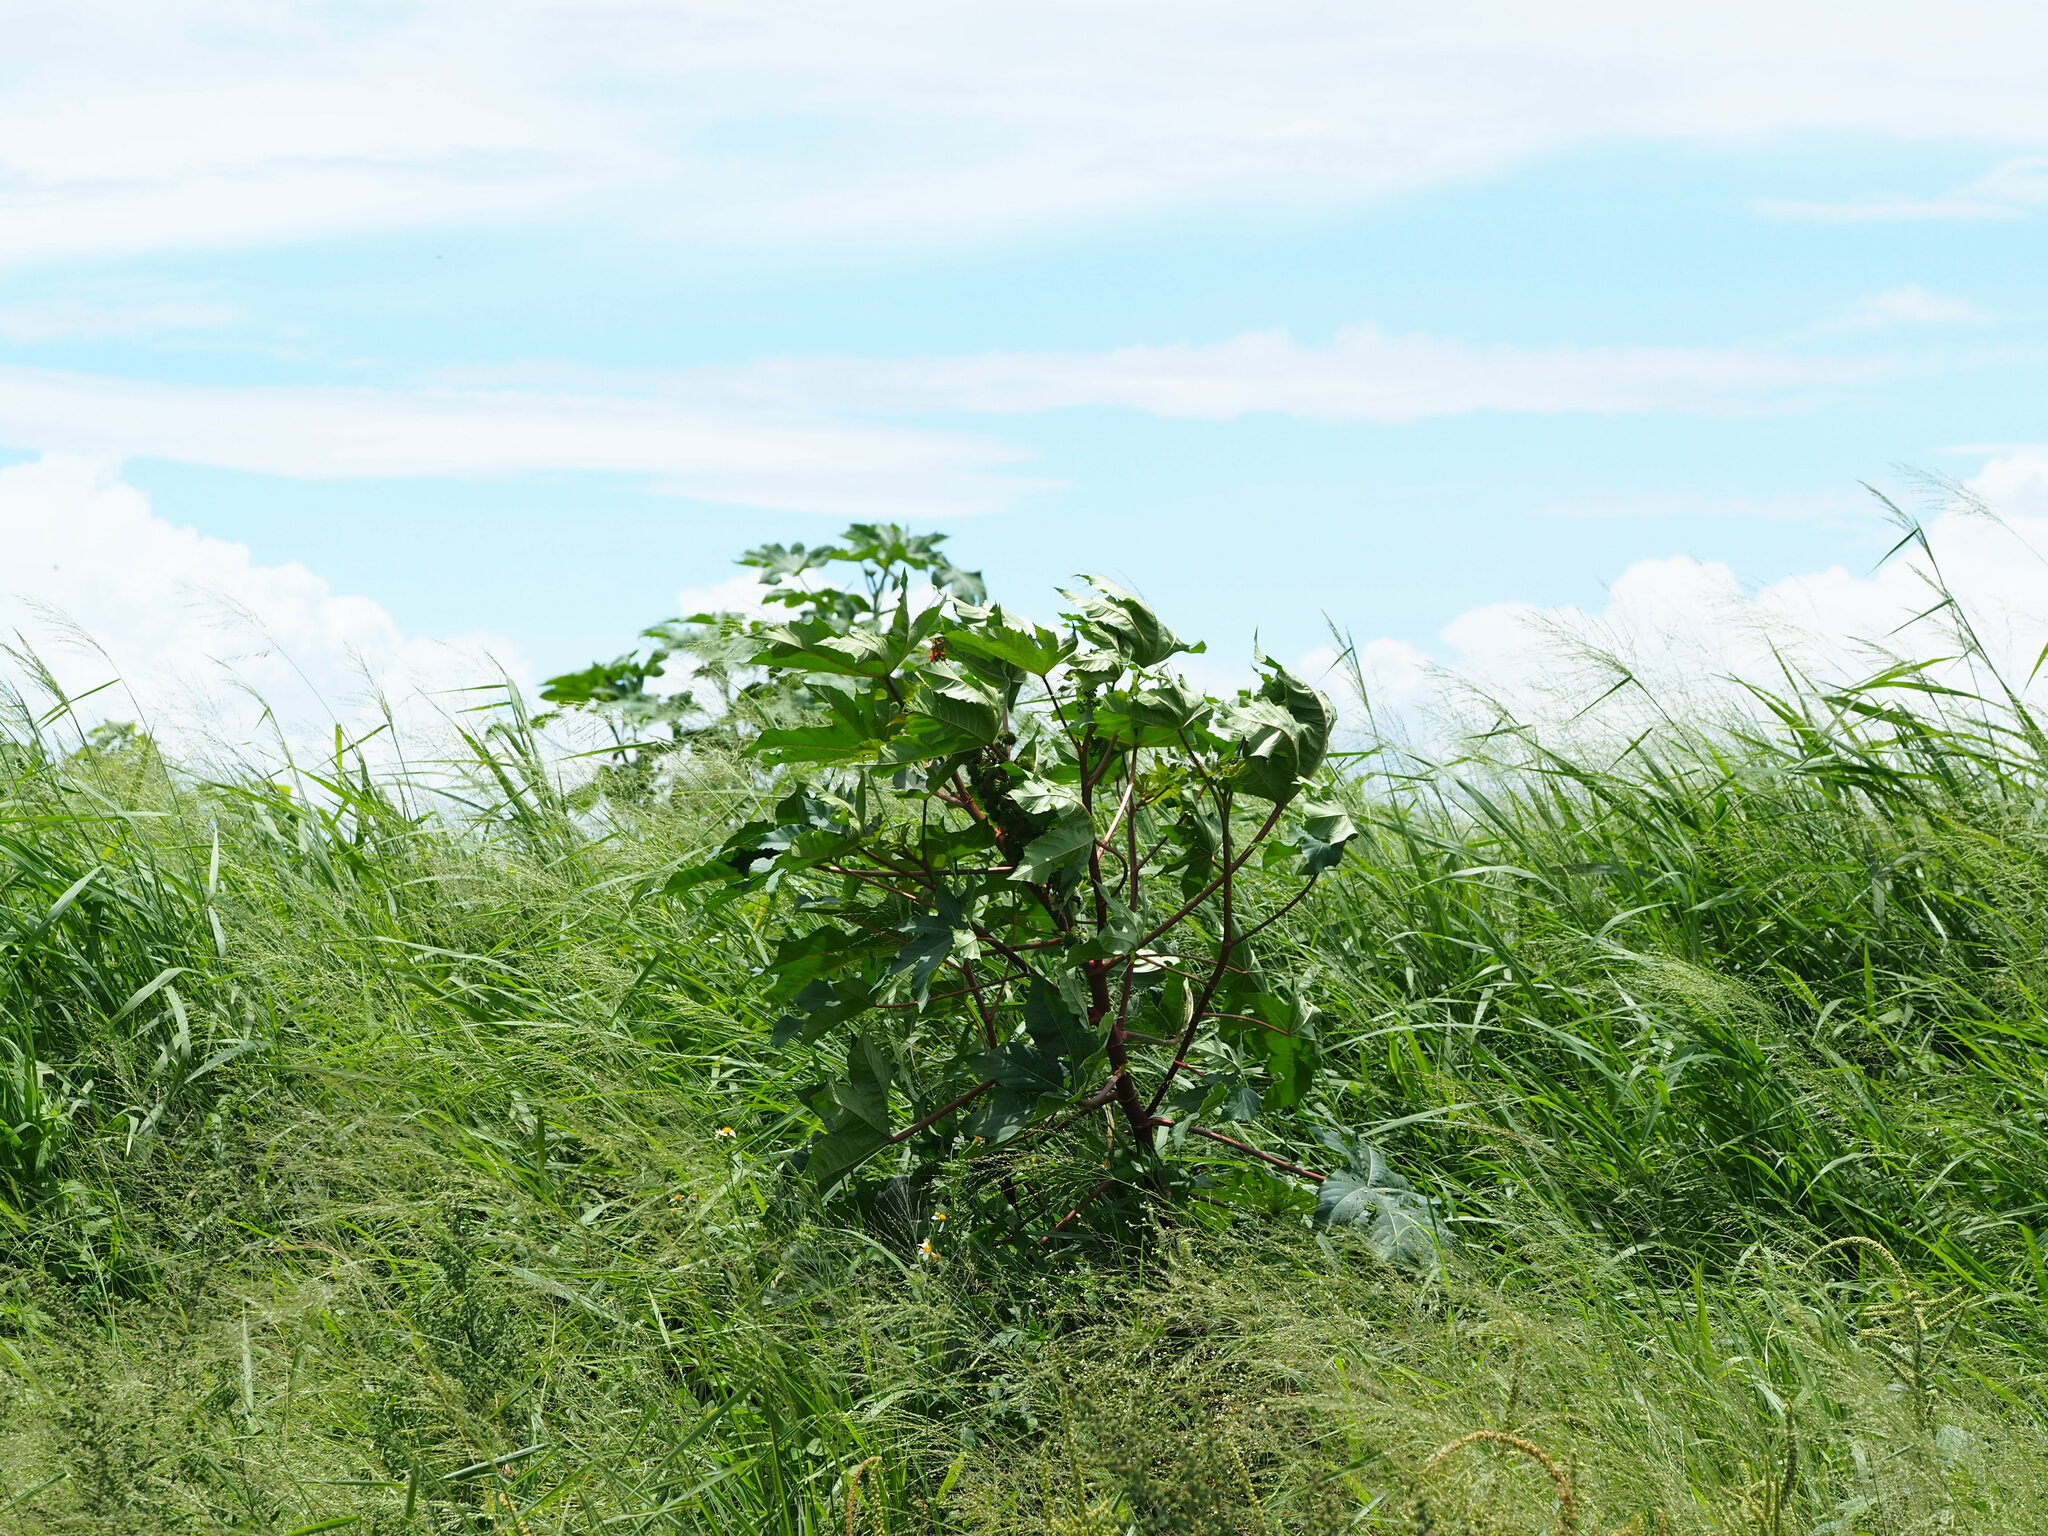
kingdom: Plantae
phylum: Tracheophyta
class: Magnoliopsida
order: Malpighiales
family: Euphorbiaceae
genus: Ricinus
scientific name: Ricinus communis
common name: Castor-oil-plant
